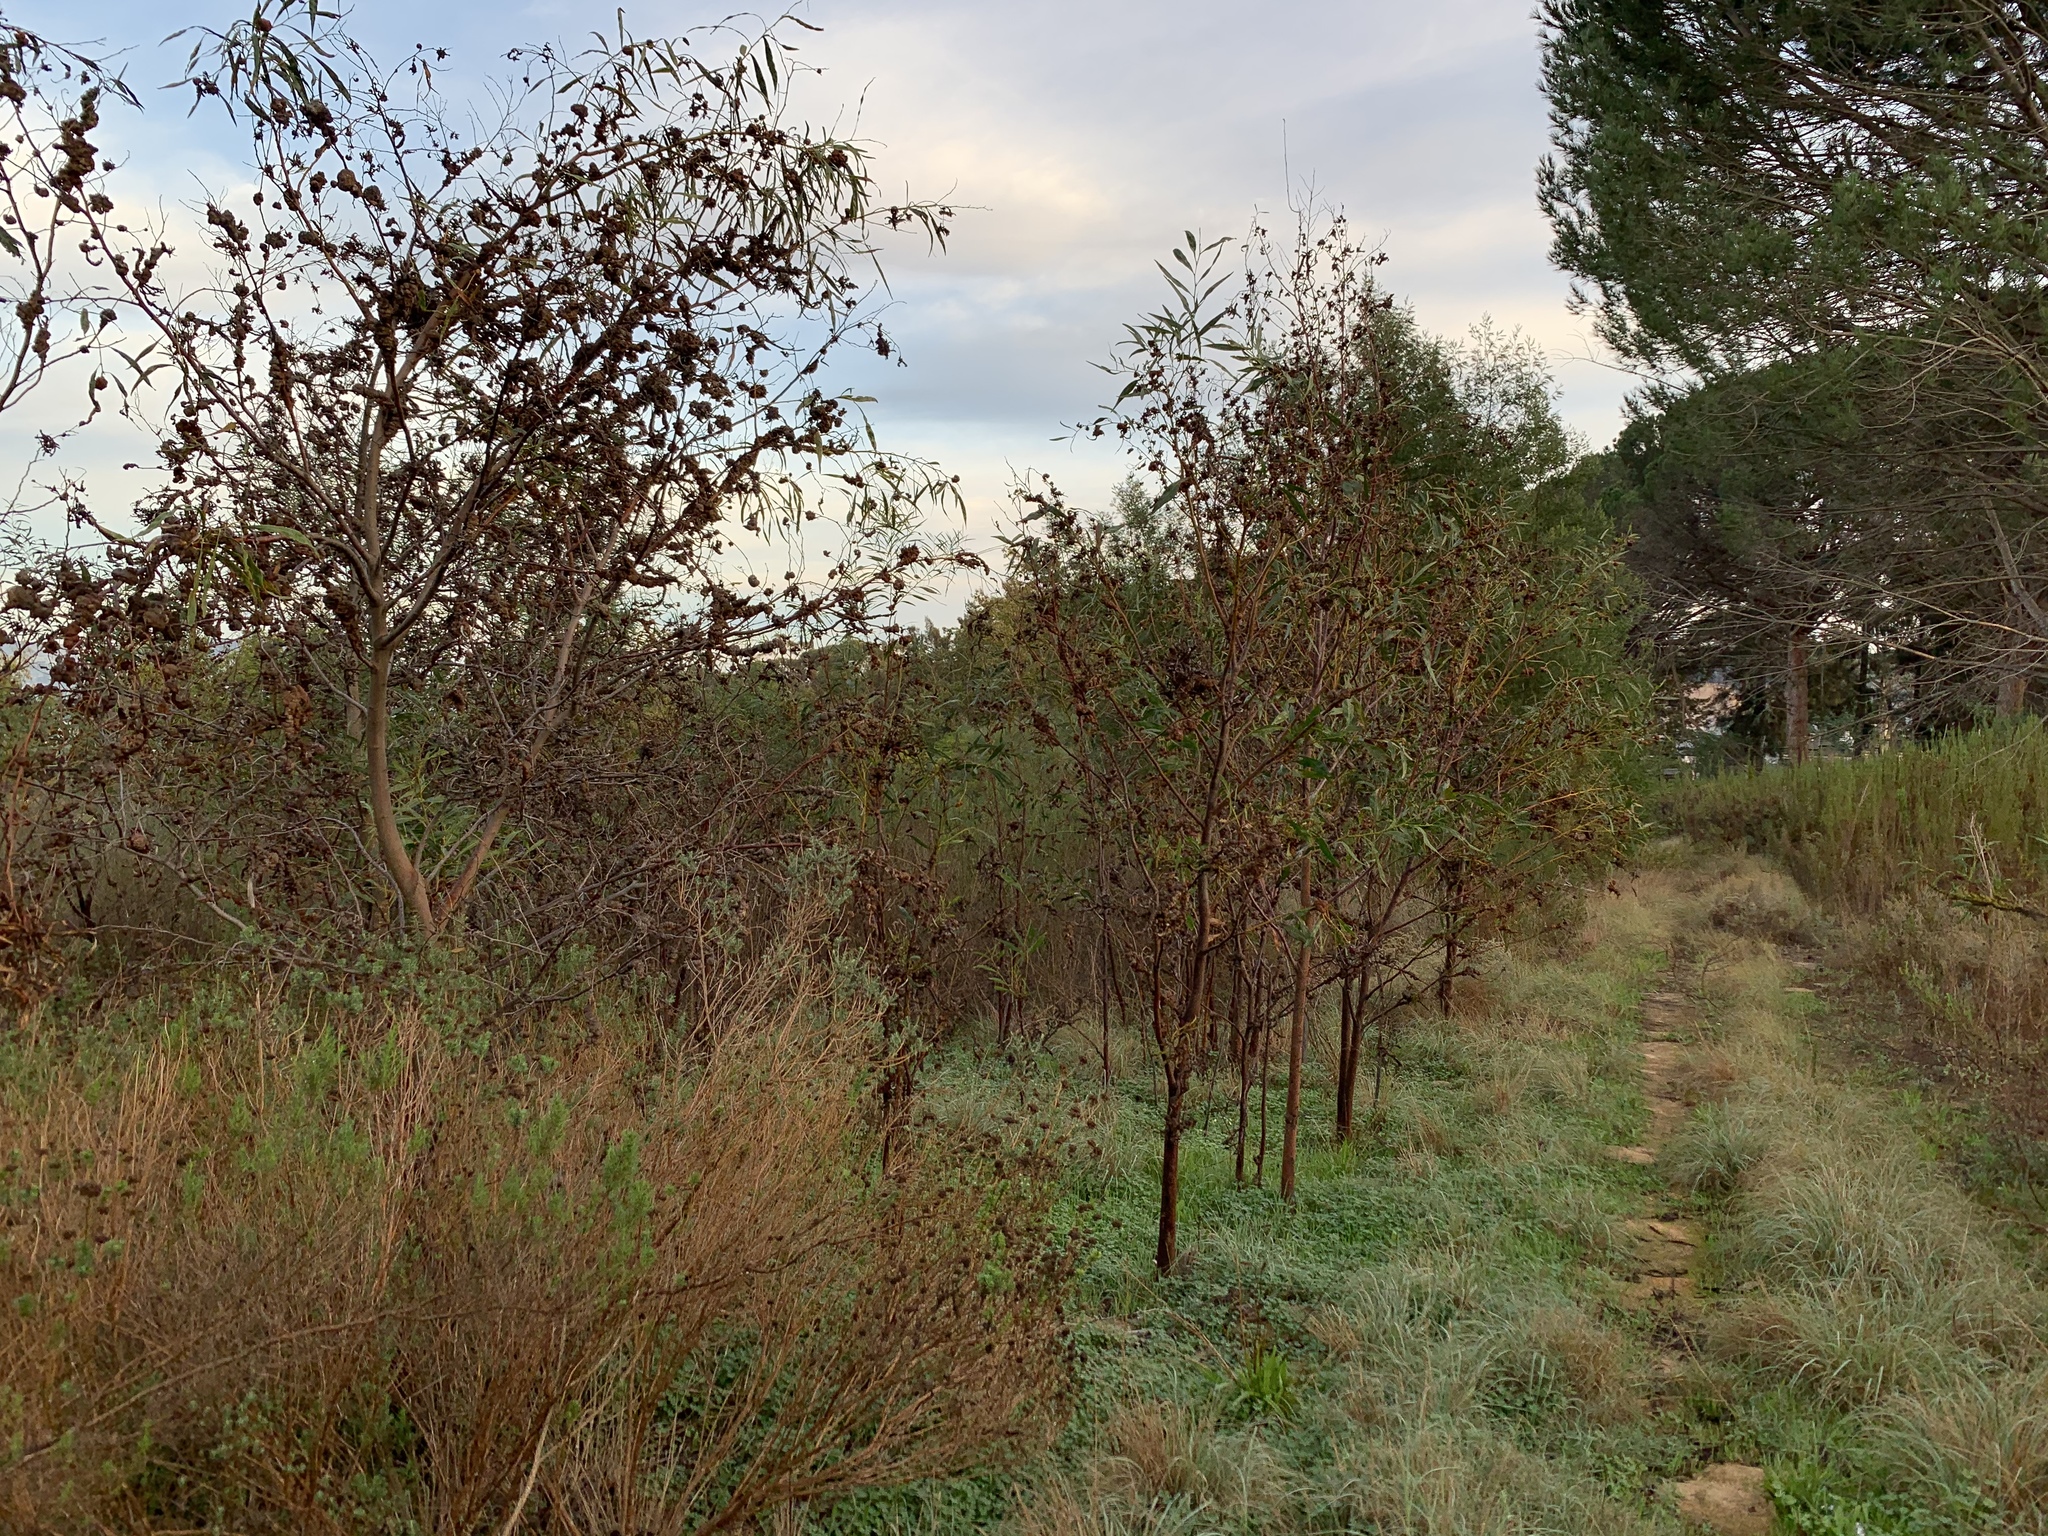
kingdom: Plantae
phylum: Tracheophyta
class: Magnoliopsida
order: Fabales
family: Fabaceae
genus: Acacia
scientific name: Acacia saligna
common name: Orange wattle
